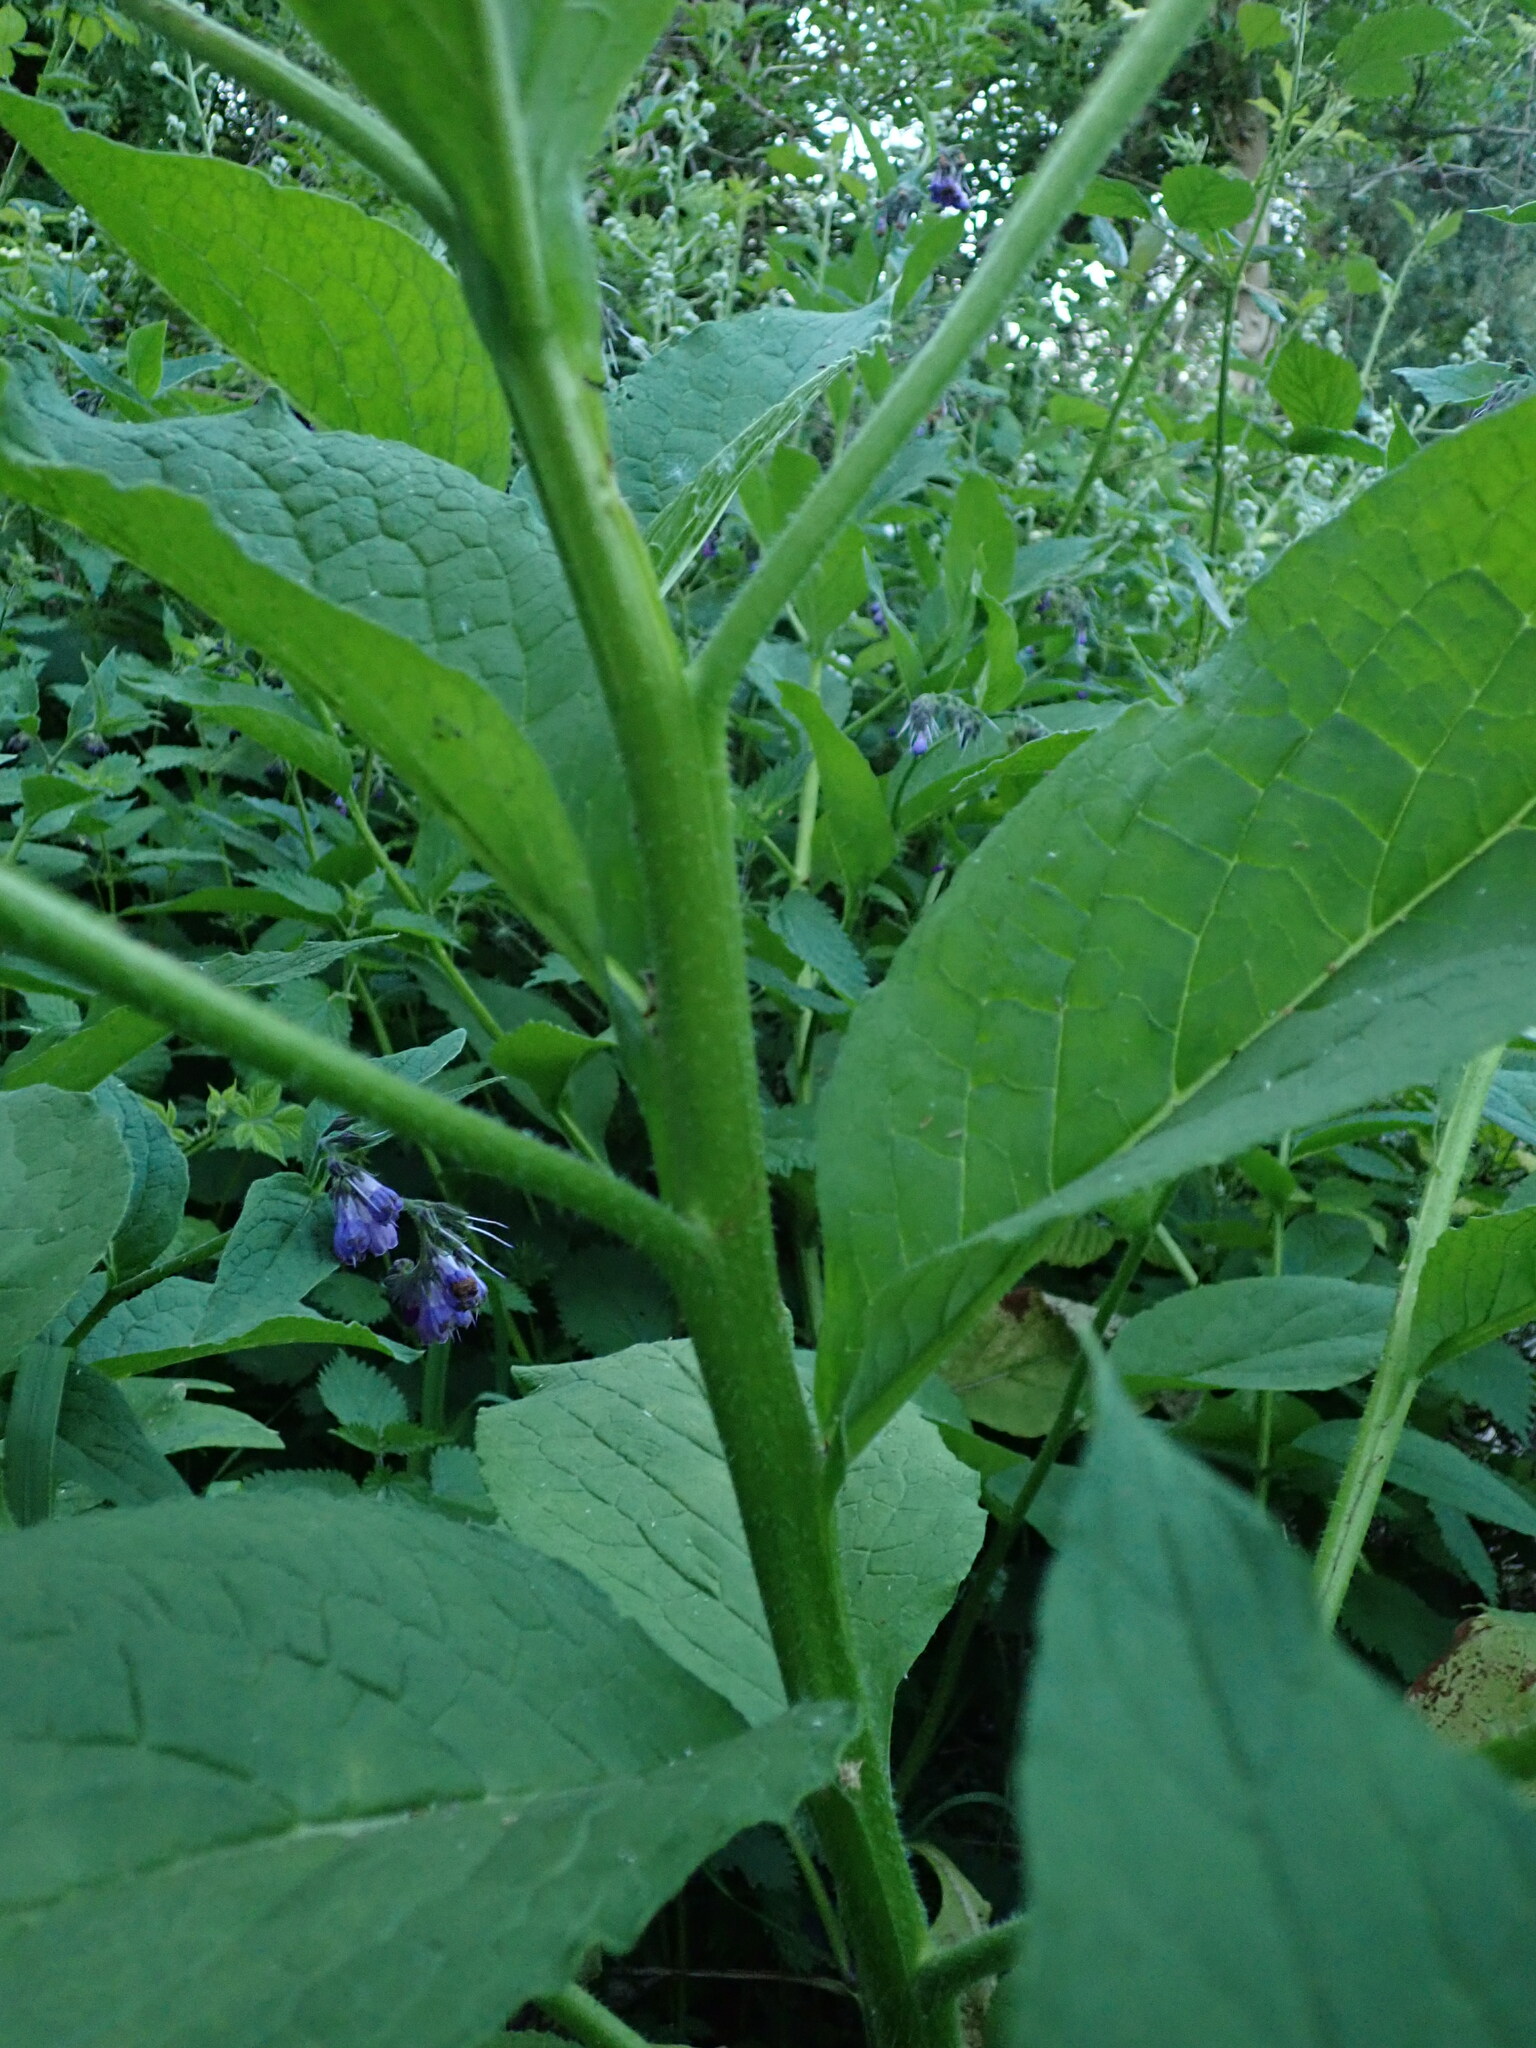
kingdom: Plantae
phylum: Tracheophyta
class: Magnoliopsida
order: Boraginales
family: Boraginaceae
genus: Symphytum
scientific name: Symphytum uplandicum
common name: Russian comfrey
